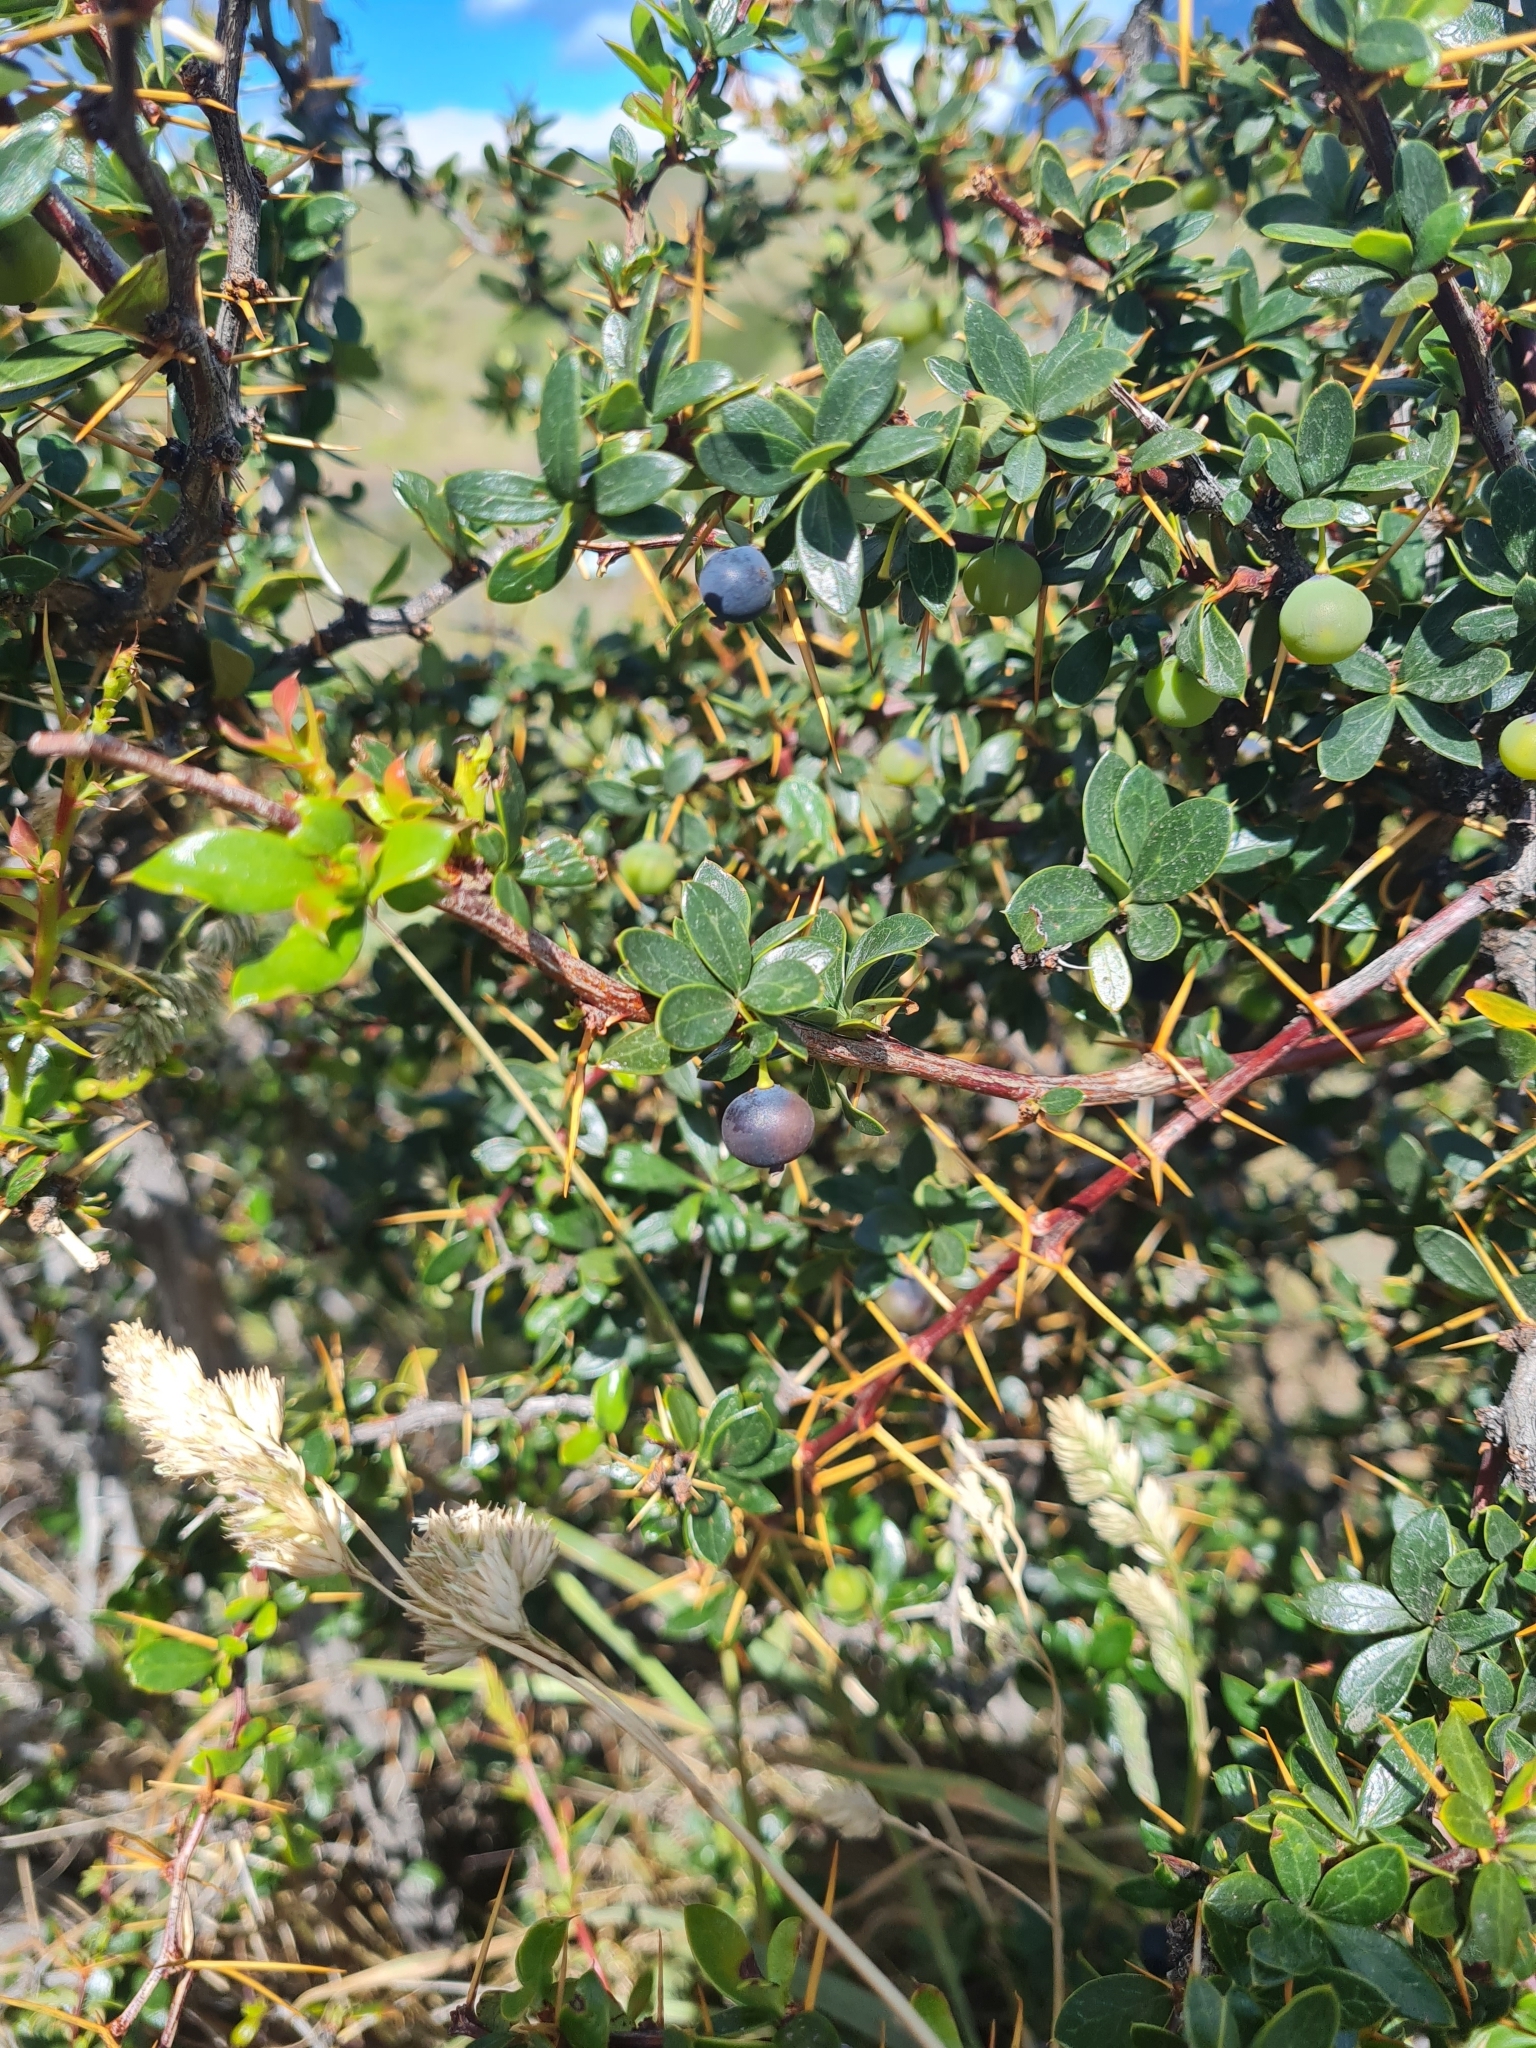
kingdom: Plantae
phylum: Tracheophyta
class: Magnoliopsida
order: Ranunculales
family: Berberidaceae
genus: Berberis
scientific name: Berberis microphylla
